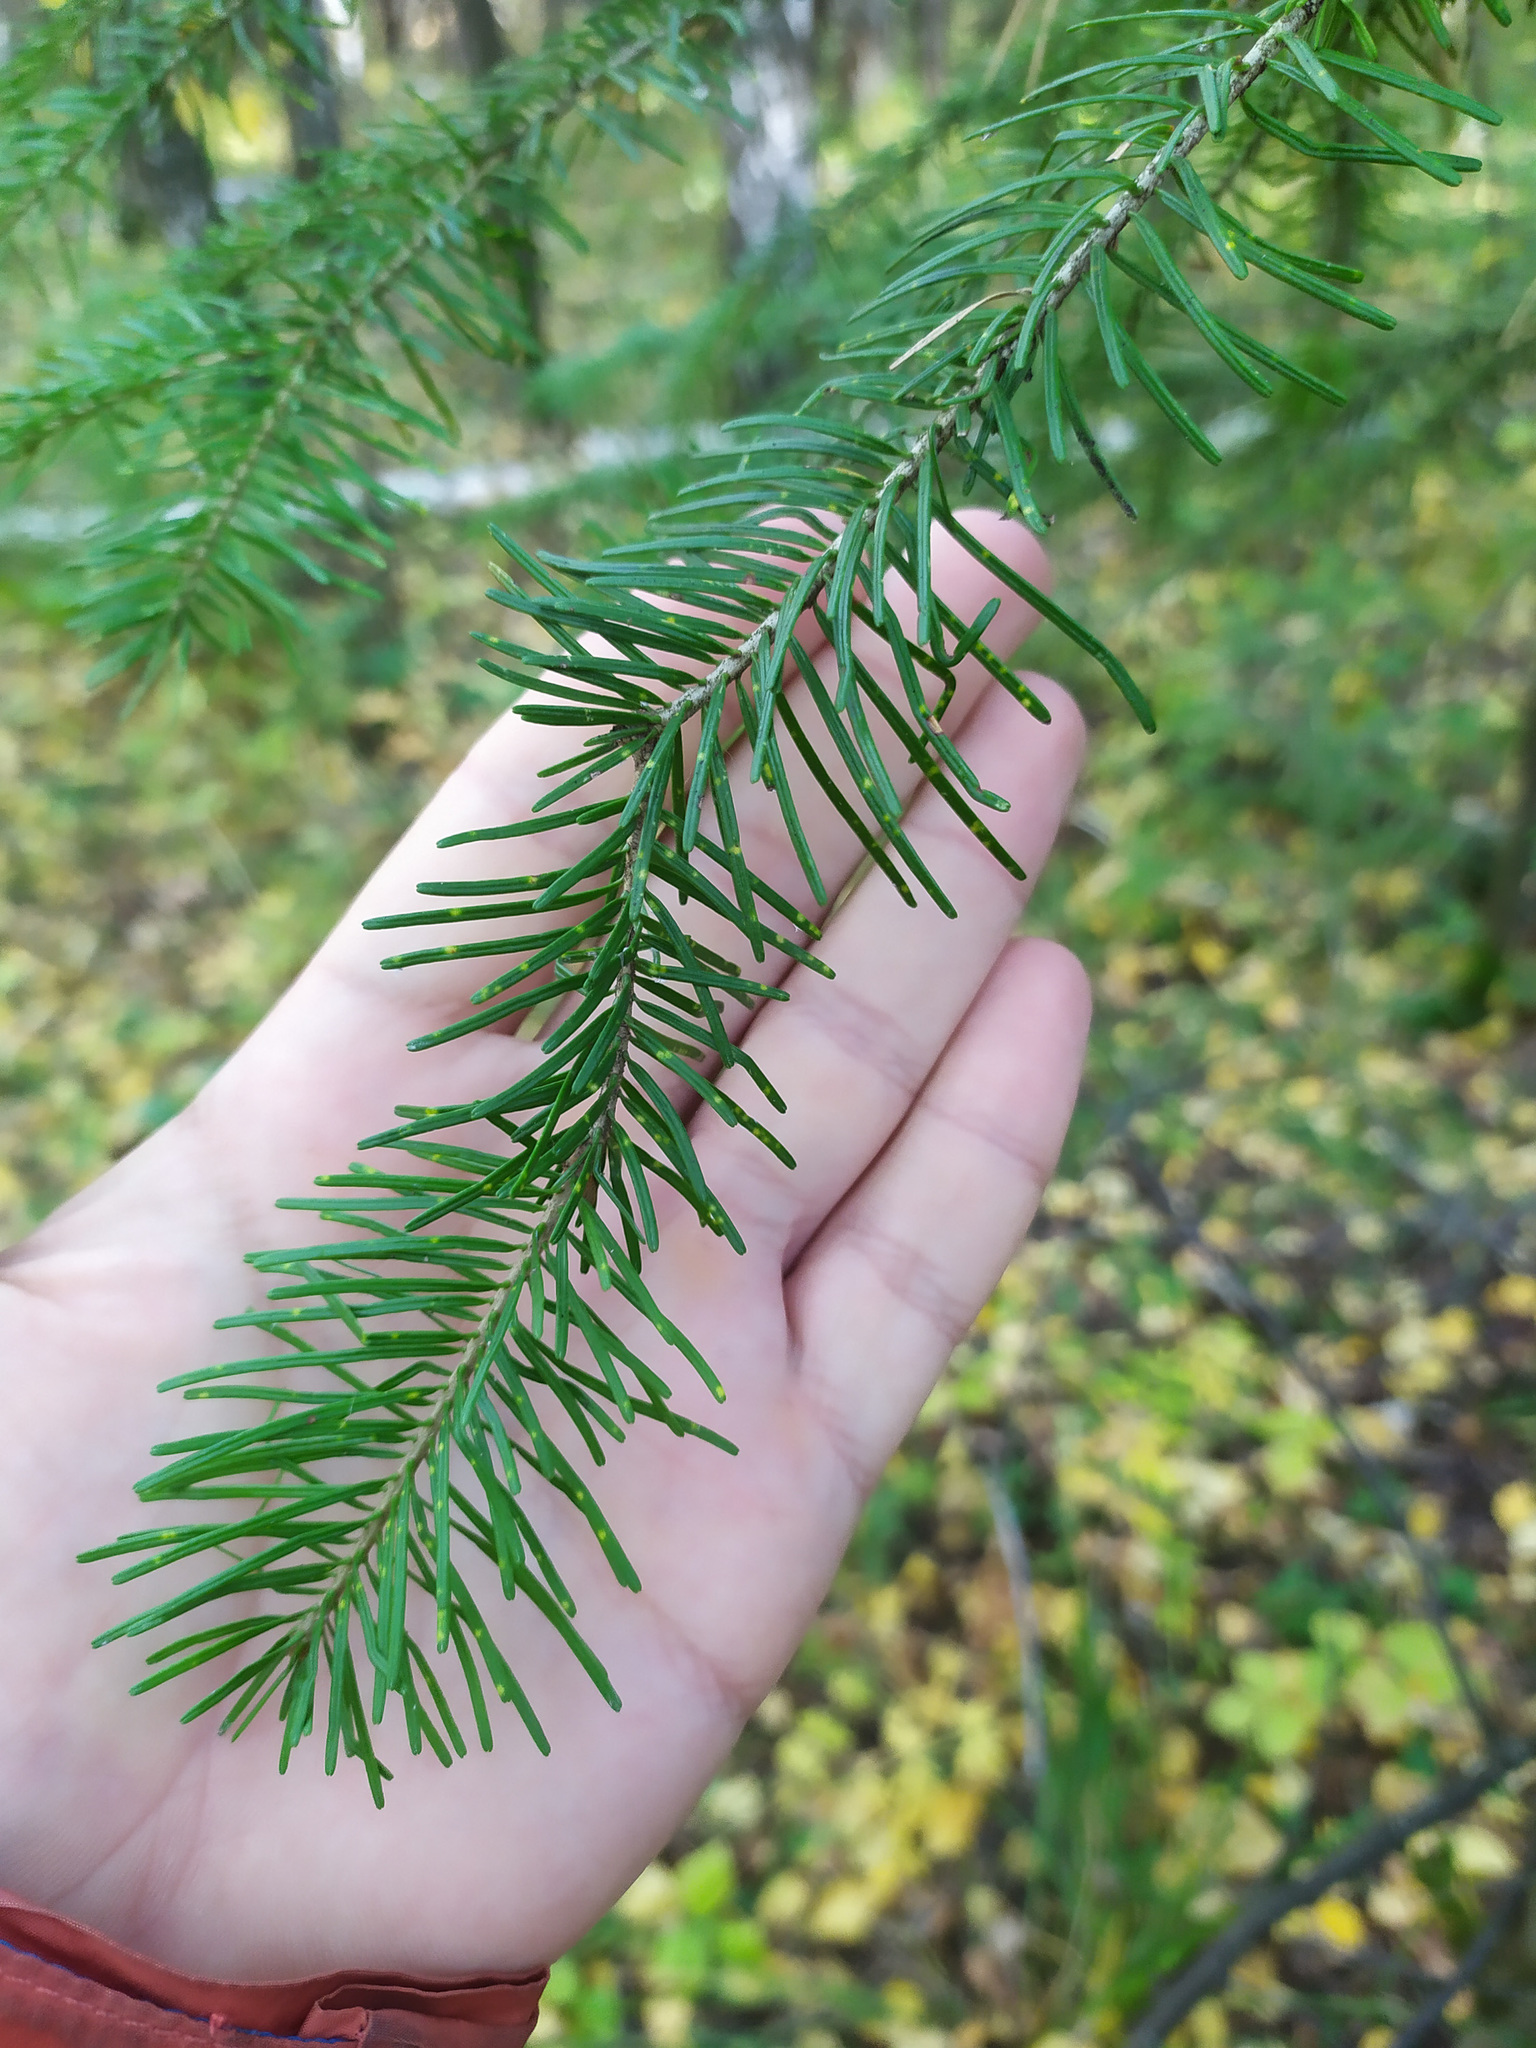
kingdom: Plantae
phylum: Tracheophyta
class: Pinopsida
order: Pinales
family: Pinaceae
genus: Abies
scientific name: Abies sibirica
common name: Siberian fir
